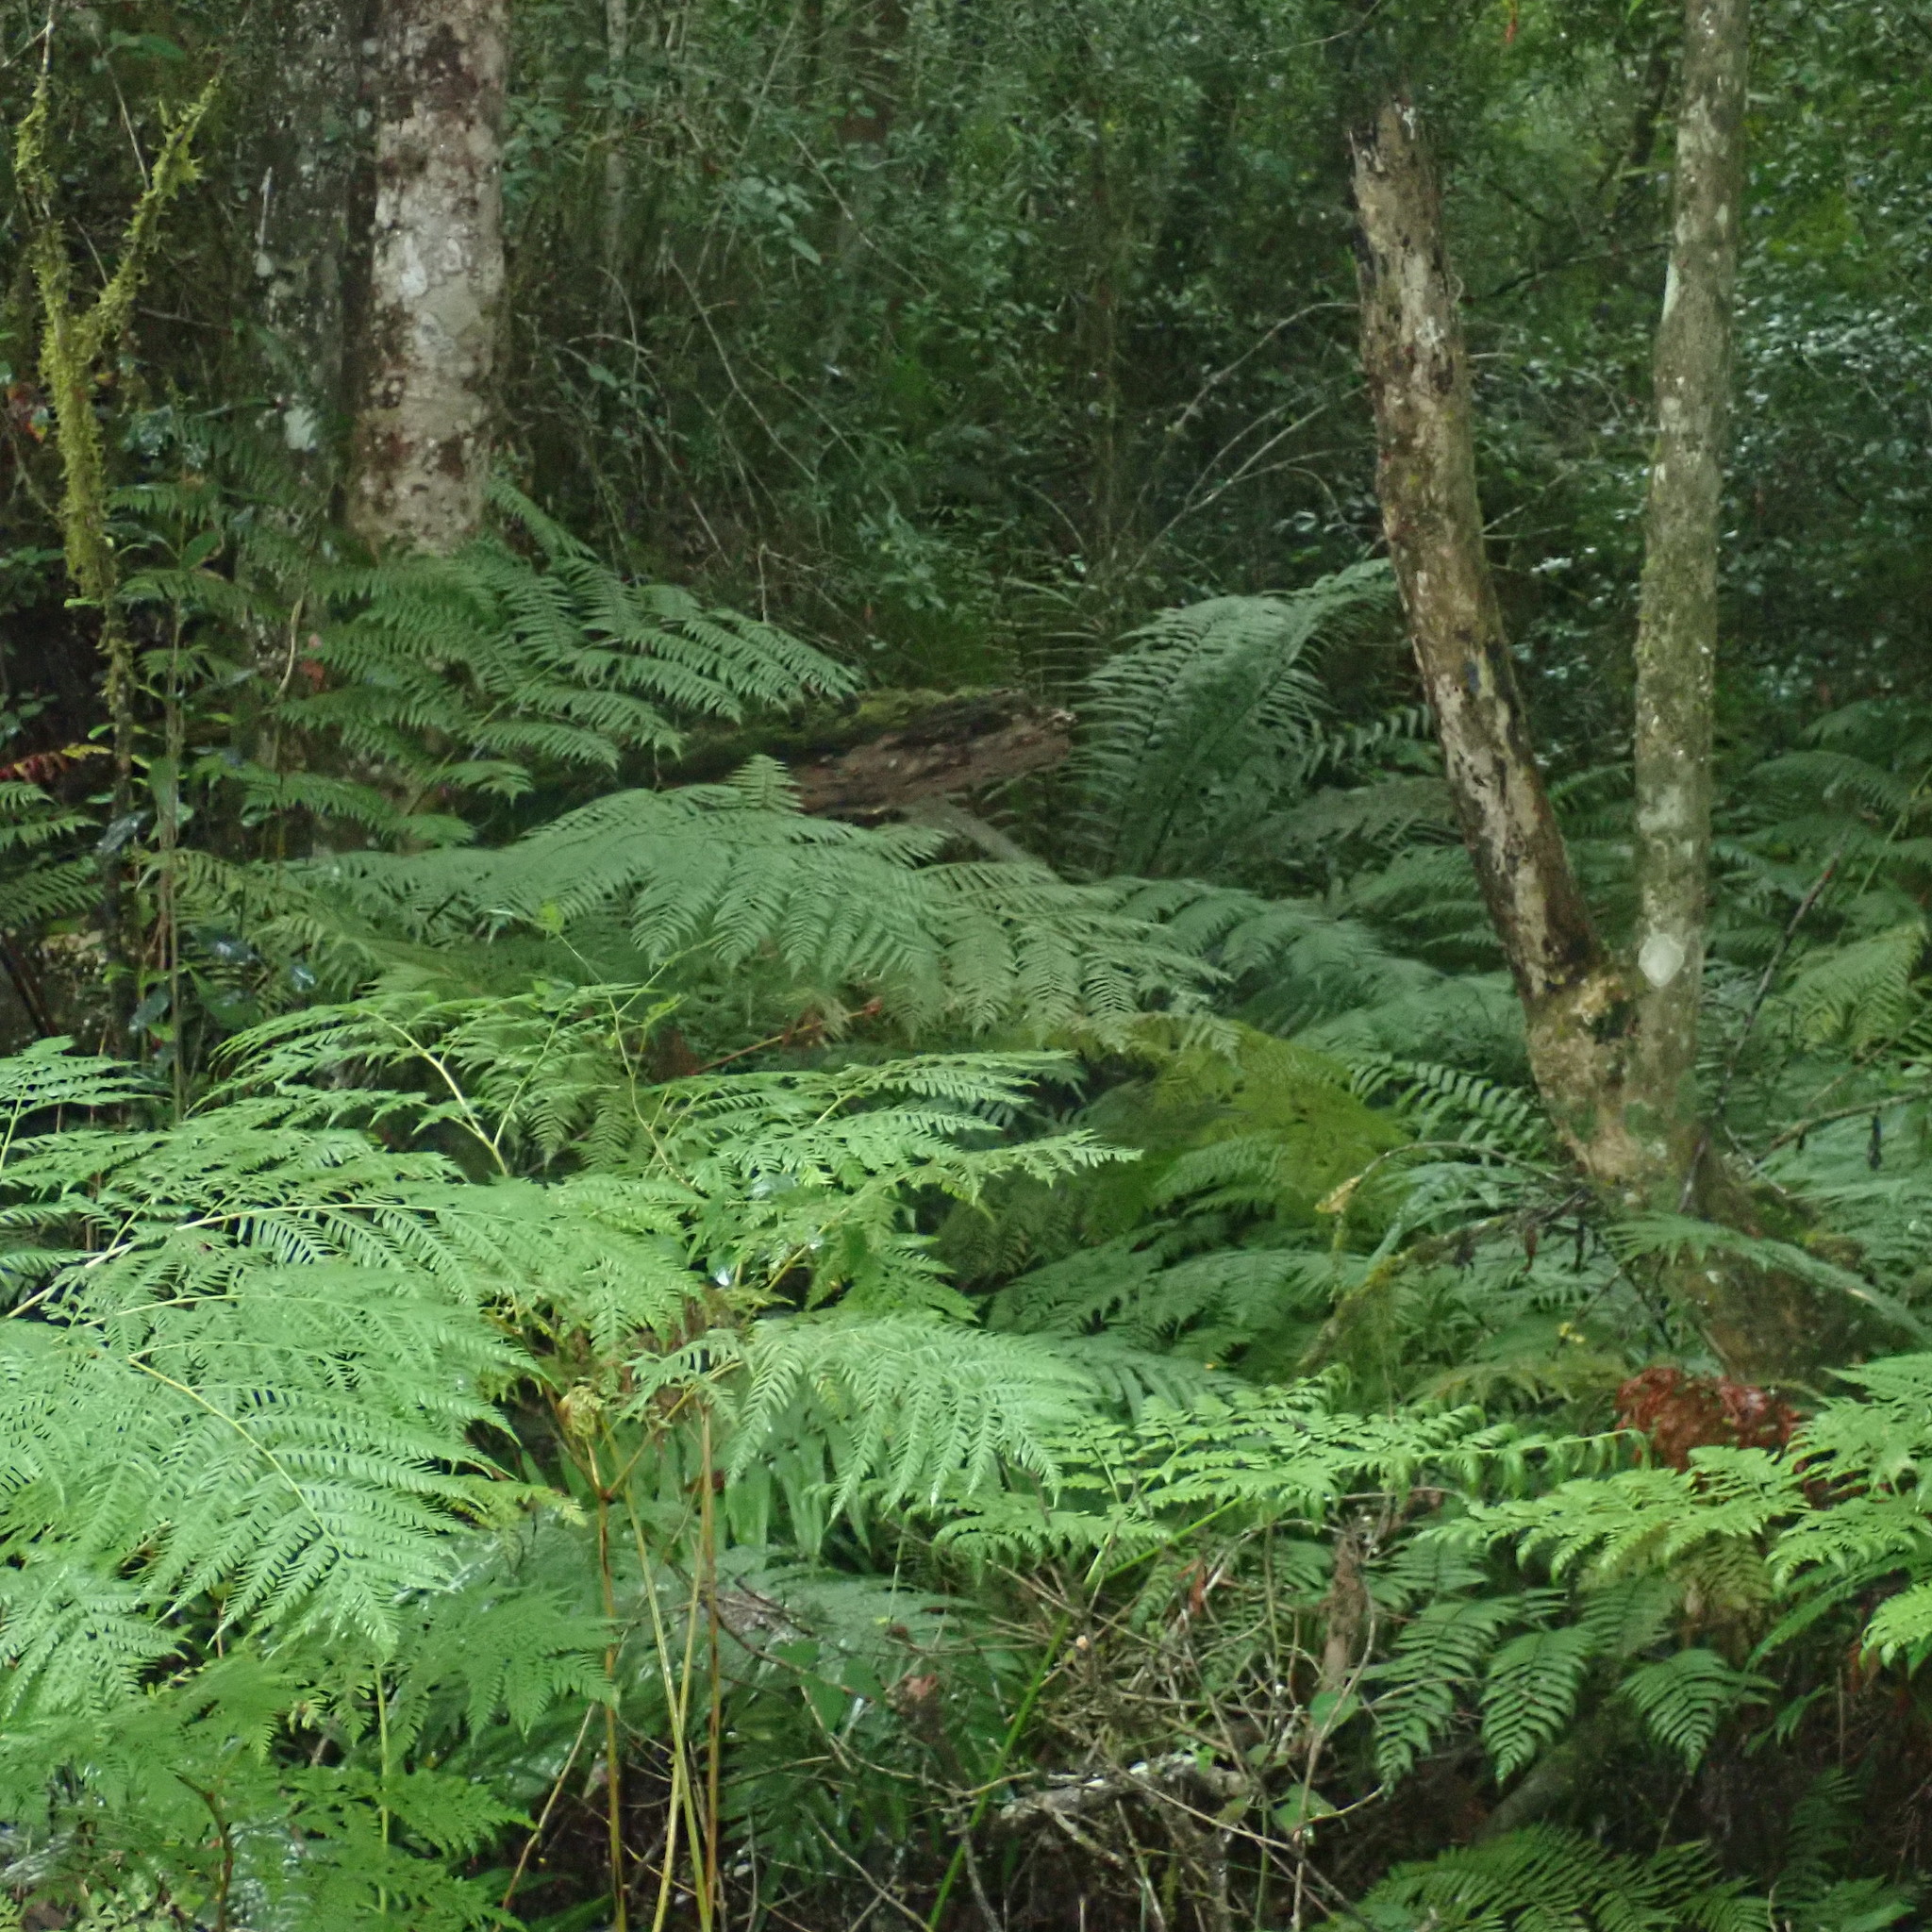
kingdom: Plantae
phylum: Tracheophyta
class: Polypodiopsida
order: Polypodiales
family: Dennstaedtiaceae
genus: Hypolepis
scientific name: Hypolepis sparsisora
